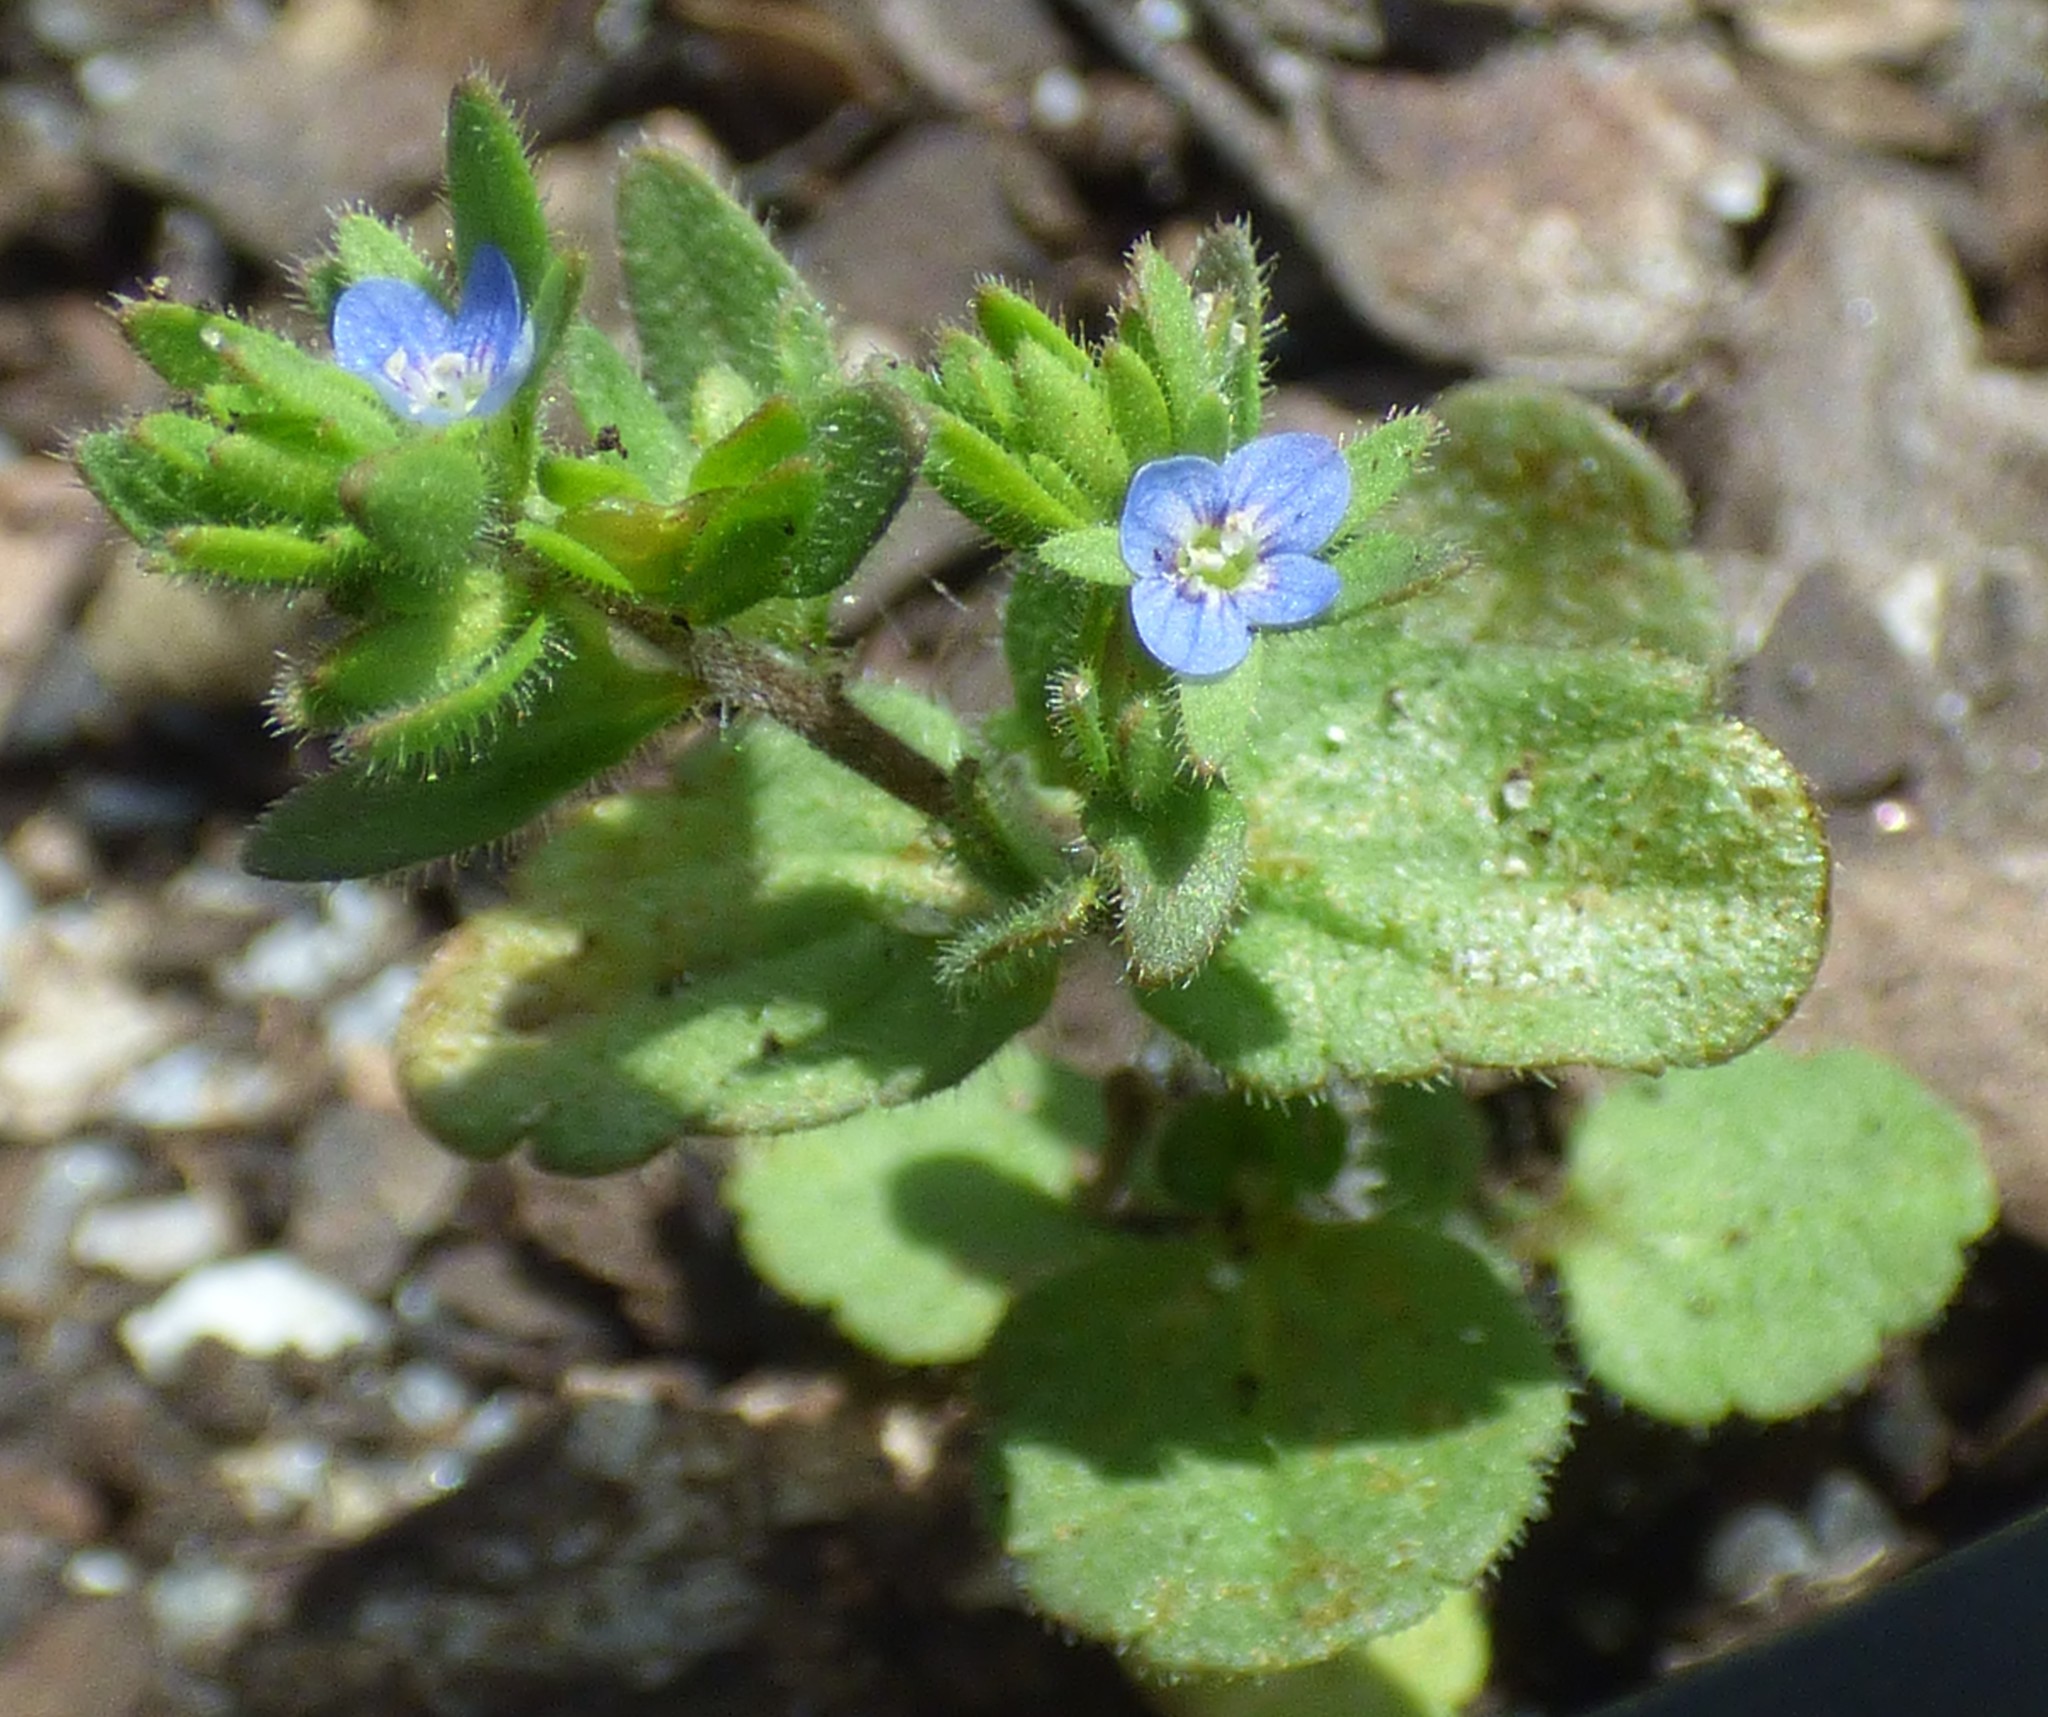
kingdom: Plantae
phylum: Tracheophyta
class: Magnoliopsida
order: Lamiales
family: Plantaginaceae
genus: Veronica
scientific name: Veronica arvensis
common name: Corn speedwell
